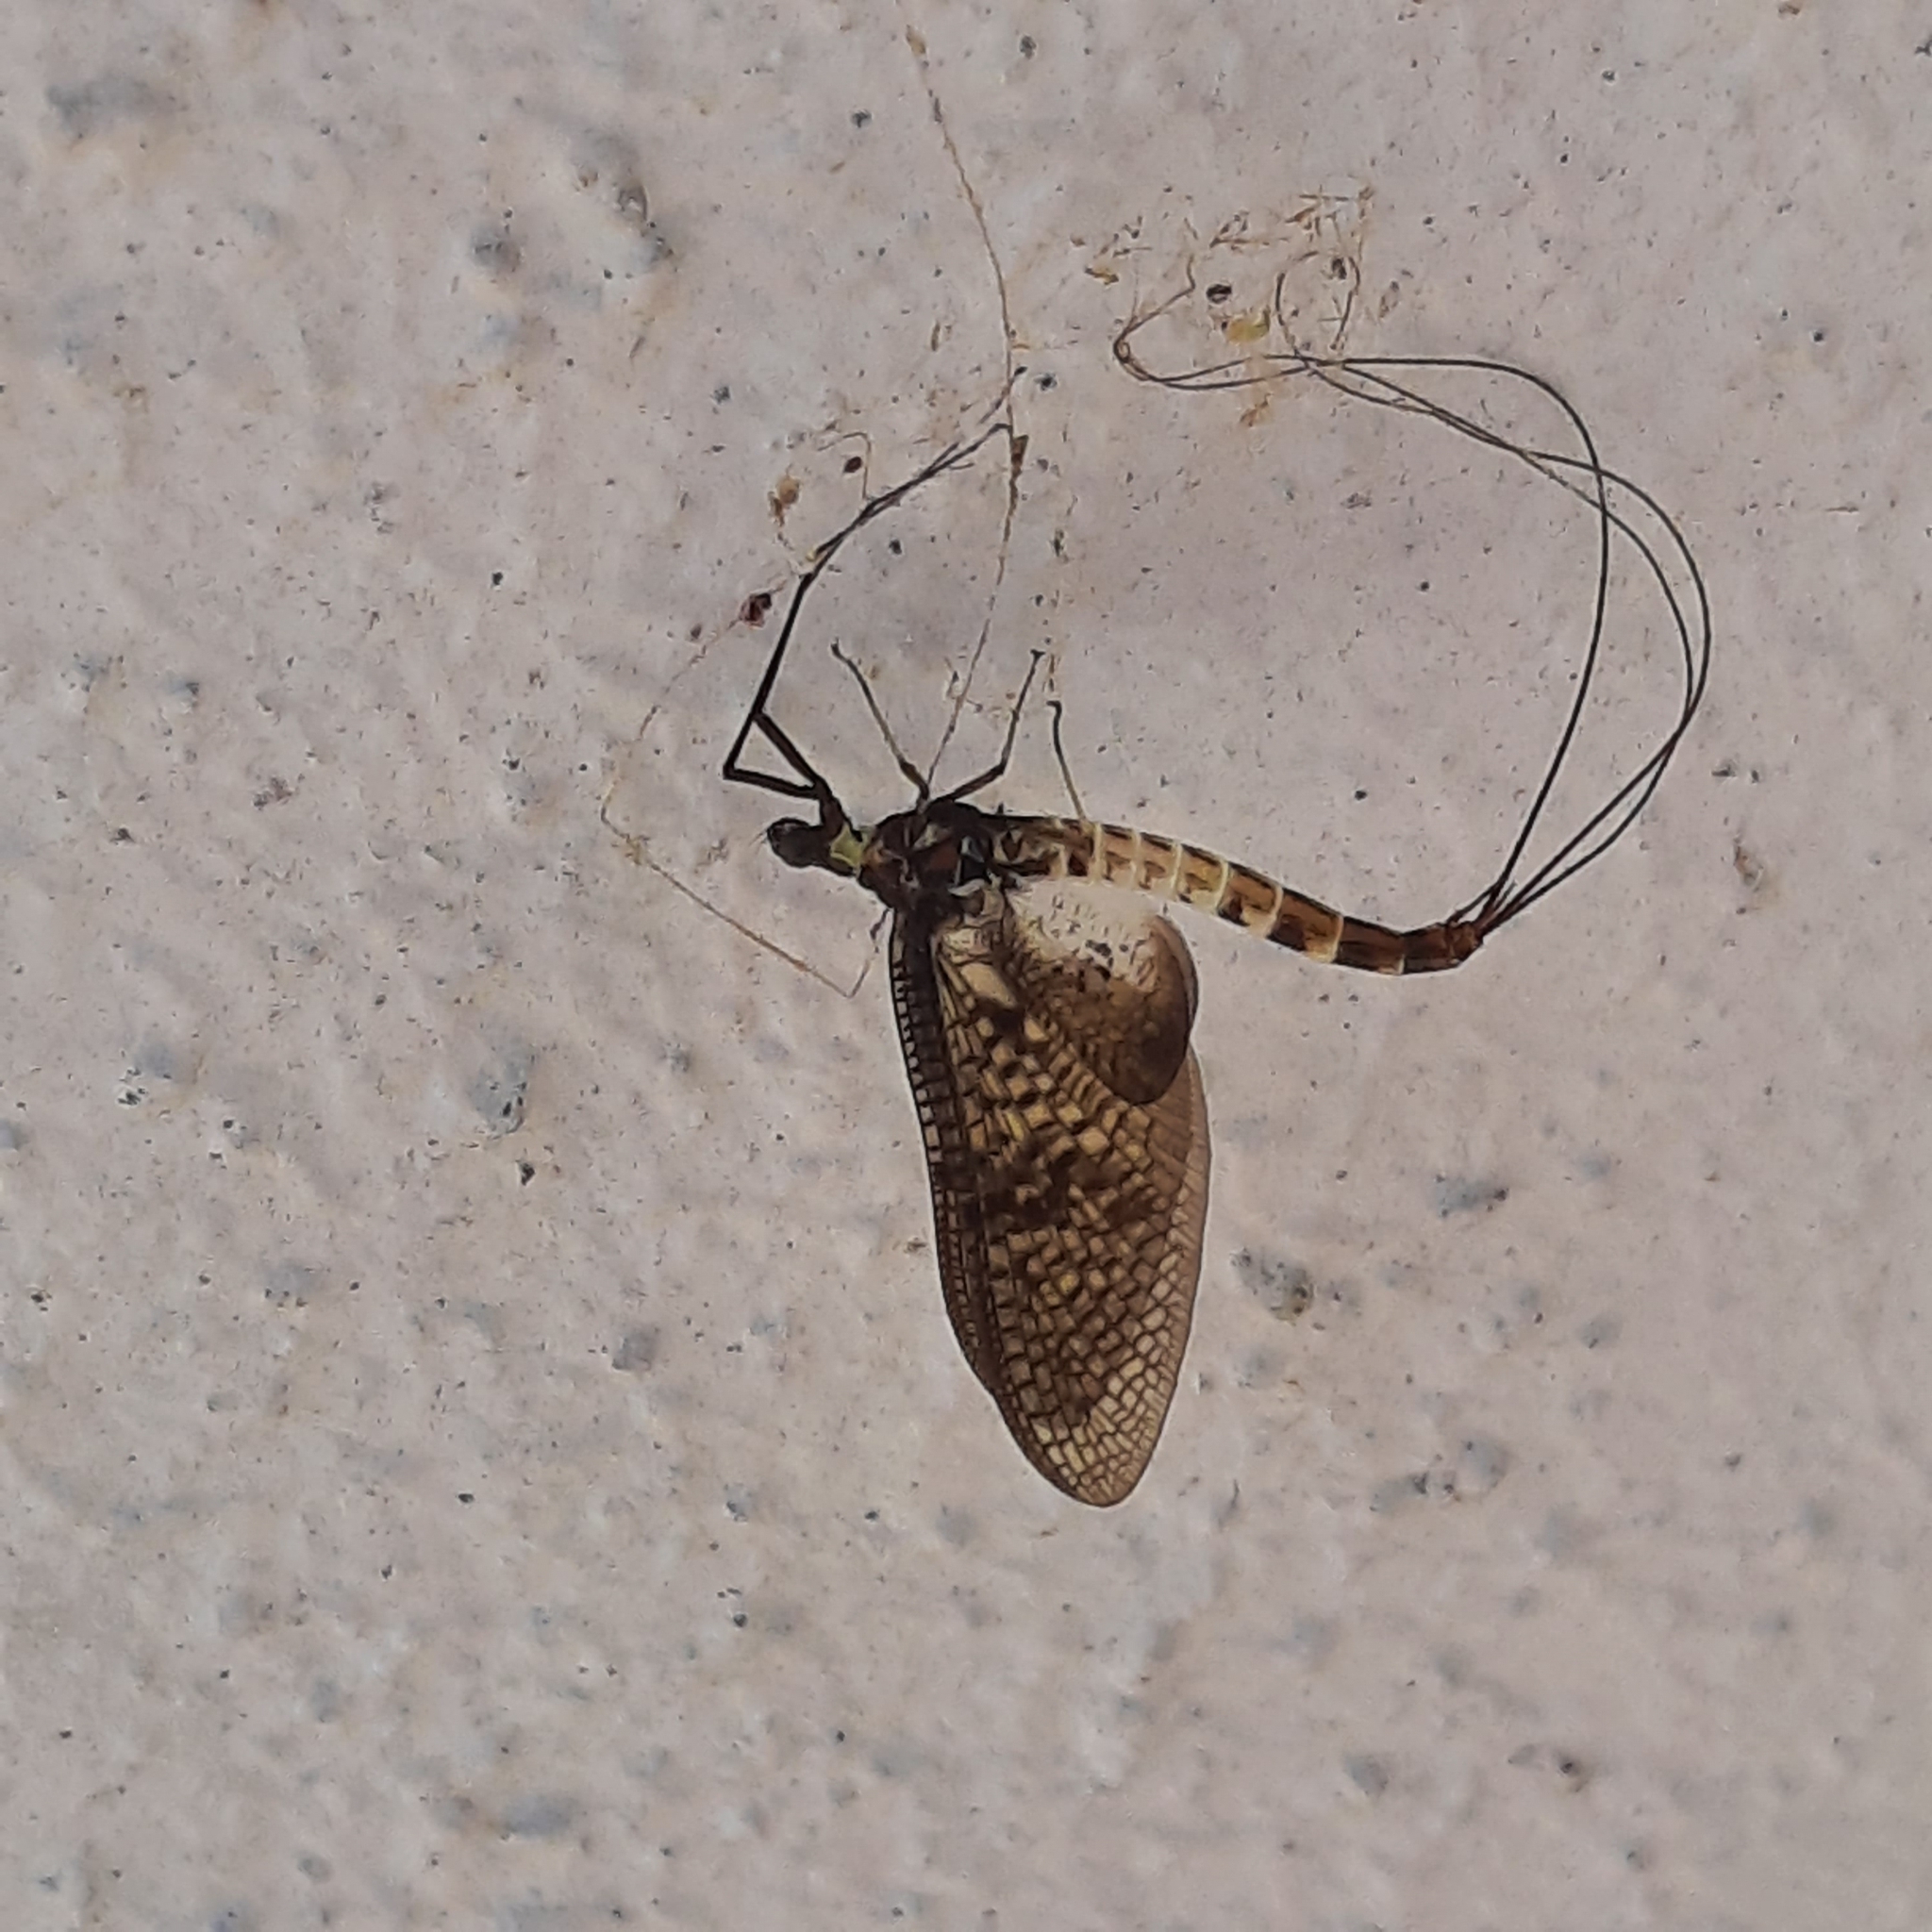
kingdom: Animalia
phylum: Arthropoda
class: Insecta
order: Ephemeroptera
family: Ephemeridae
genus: Ephemera
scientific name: Ephemera danica
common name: Green dun
